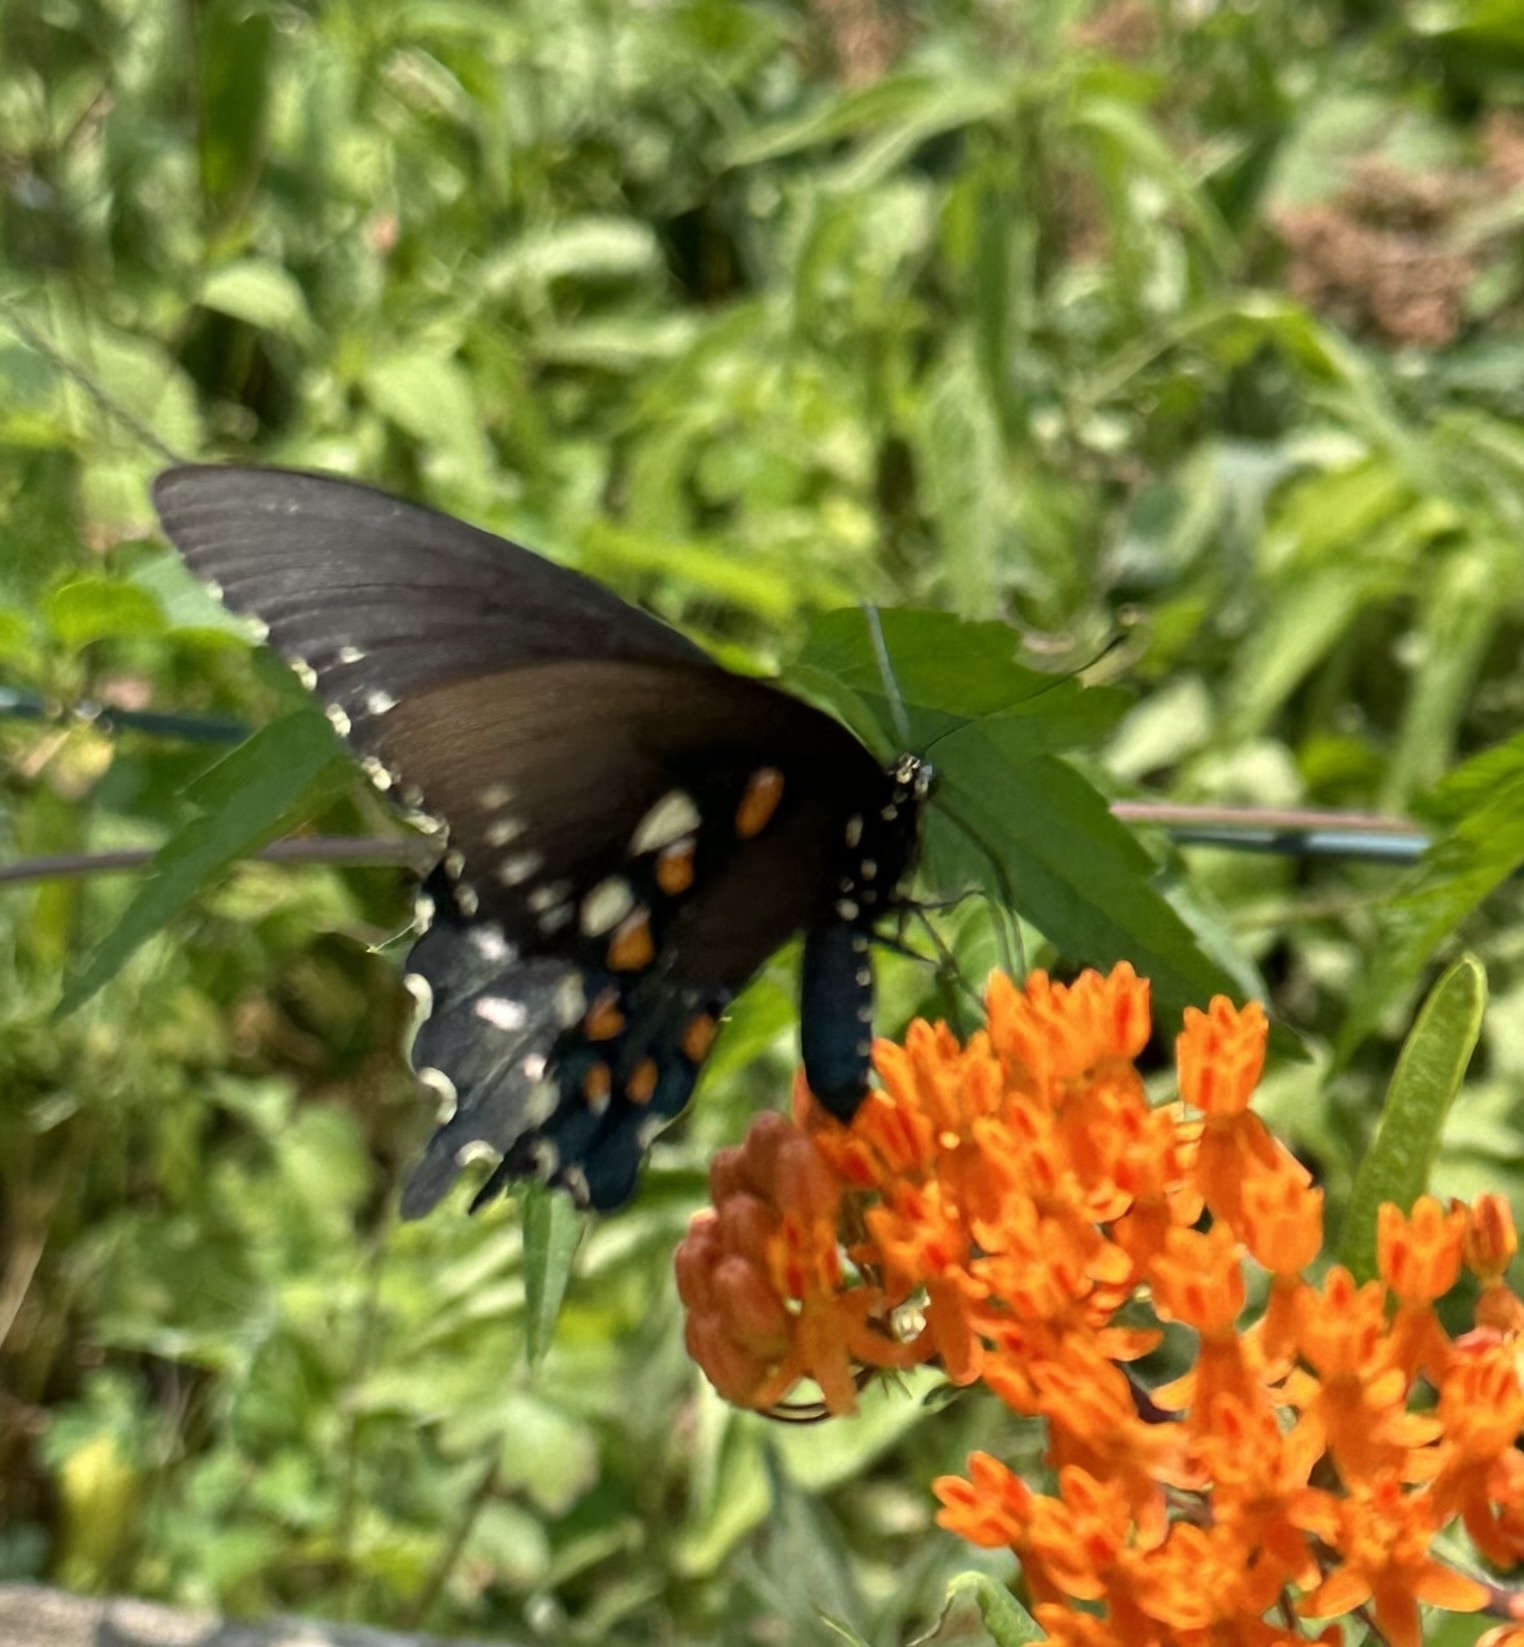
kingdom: Animalia
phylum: Arthropoda
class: Insecta
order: Lepidoptera
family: Papilionidae
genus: Battus
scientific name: Battus philenor
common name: Pipevine swallowtail
